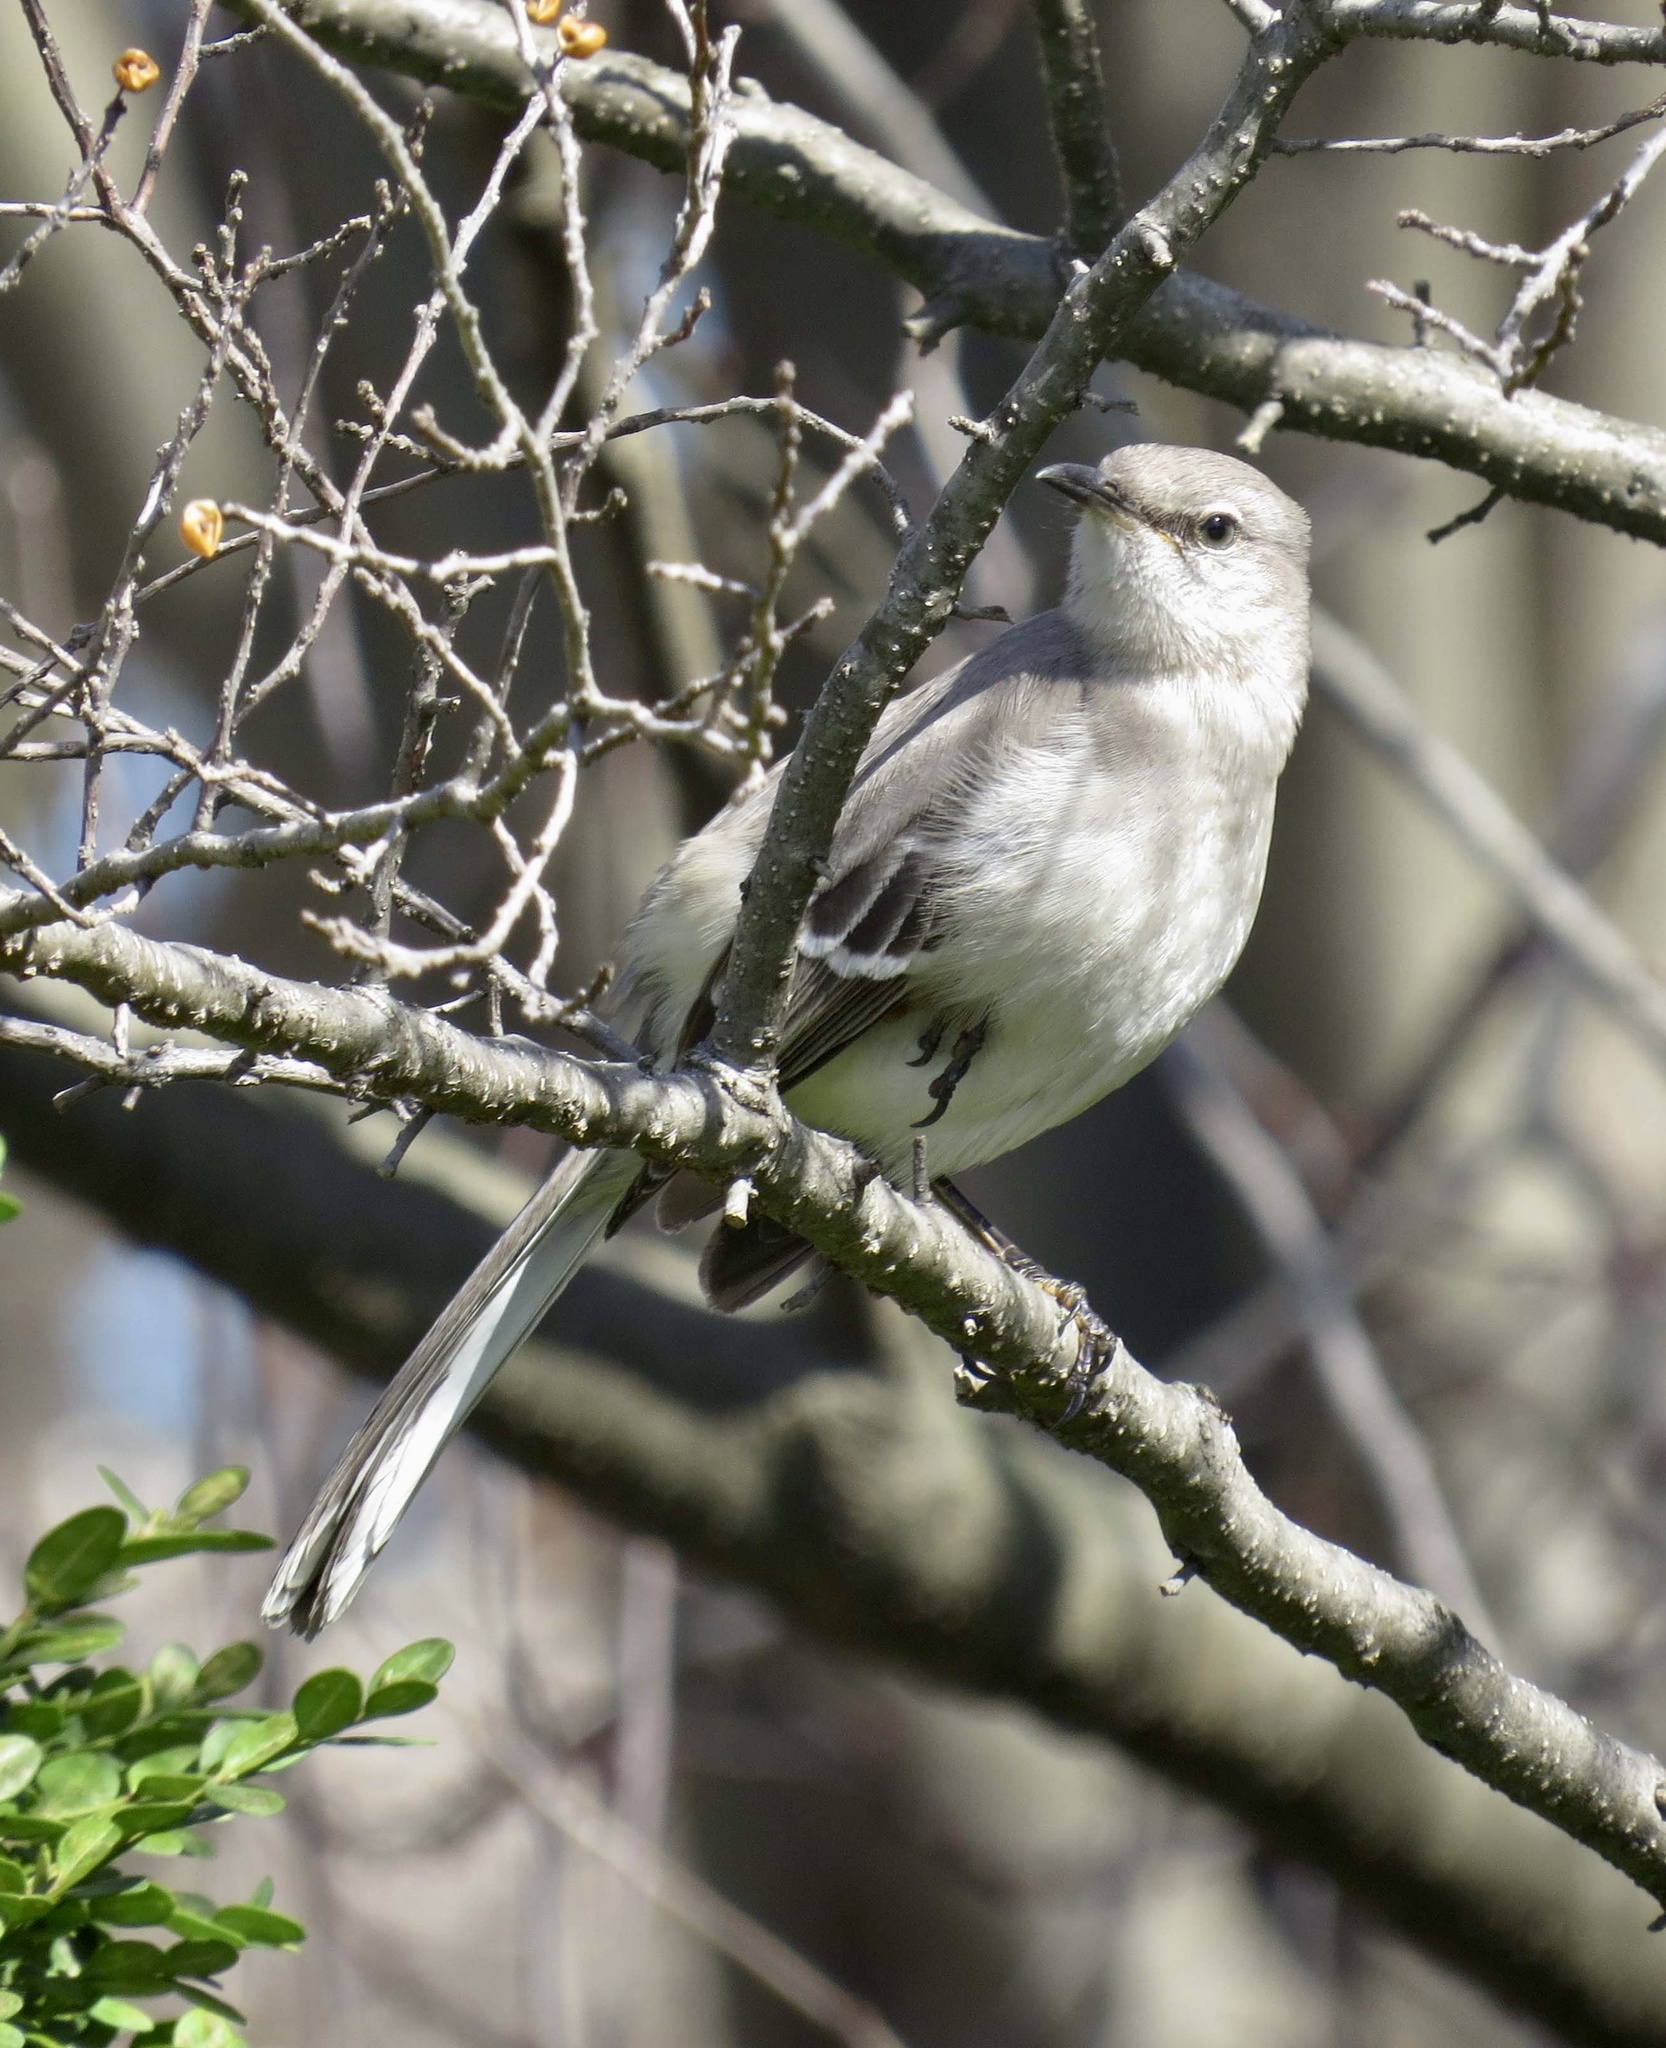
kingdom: Animalia
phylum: Chordata
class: Aves
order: Passeriformes
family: Mimidae
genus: Mimus
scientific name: Mimus polyglottos
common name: Northern mockingbird
